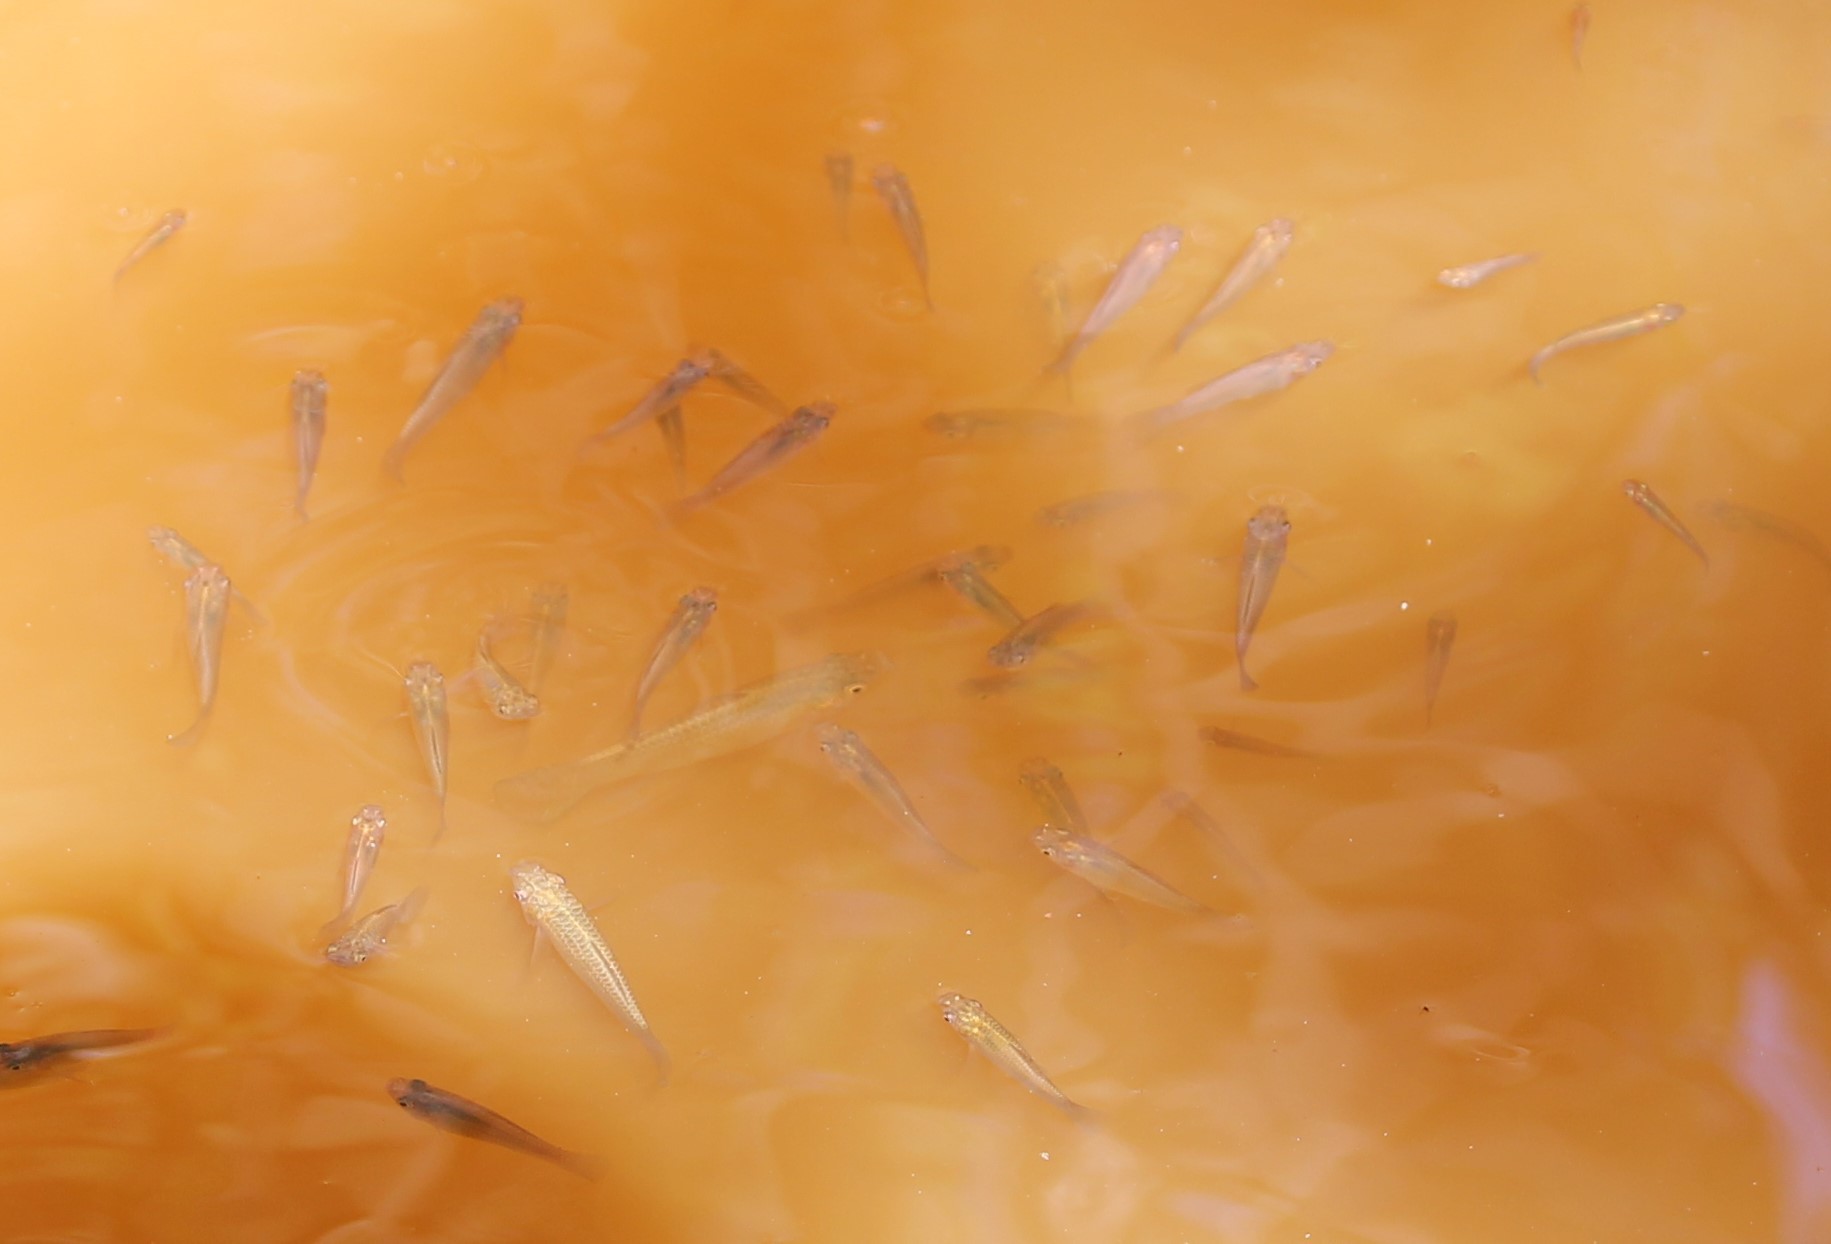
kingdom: Animalia
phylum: Chordata
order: Cyprinodontiformes
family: Poeciliidae
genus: Poecilia
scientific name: Poecilia latipinna
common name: Sailfin molly
